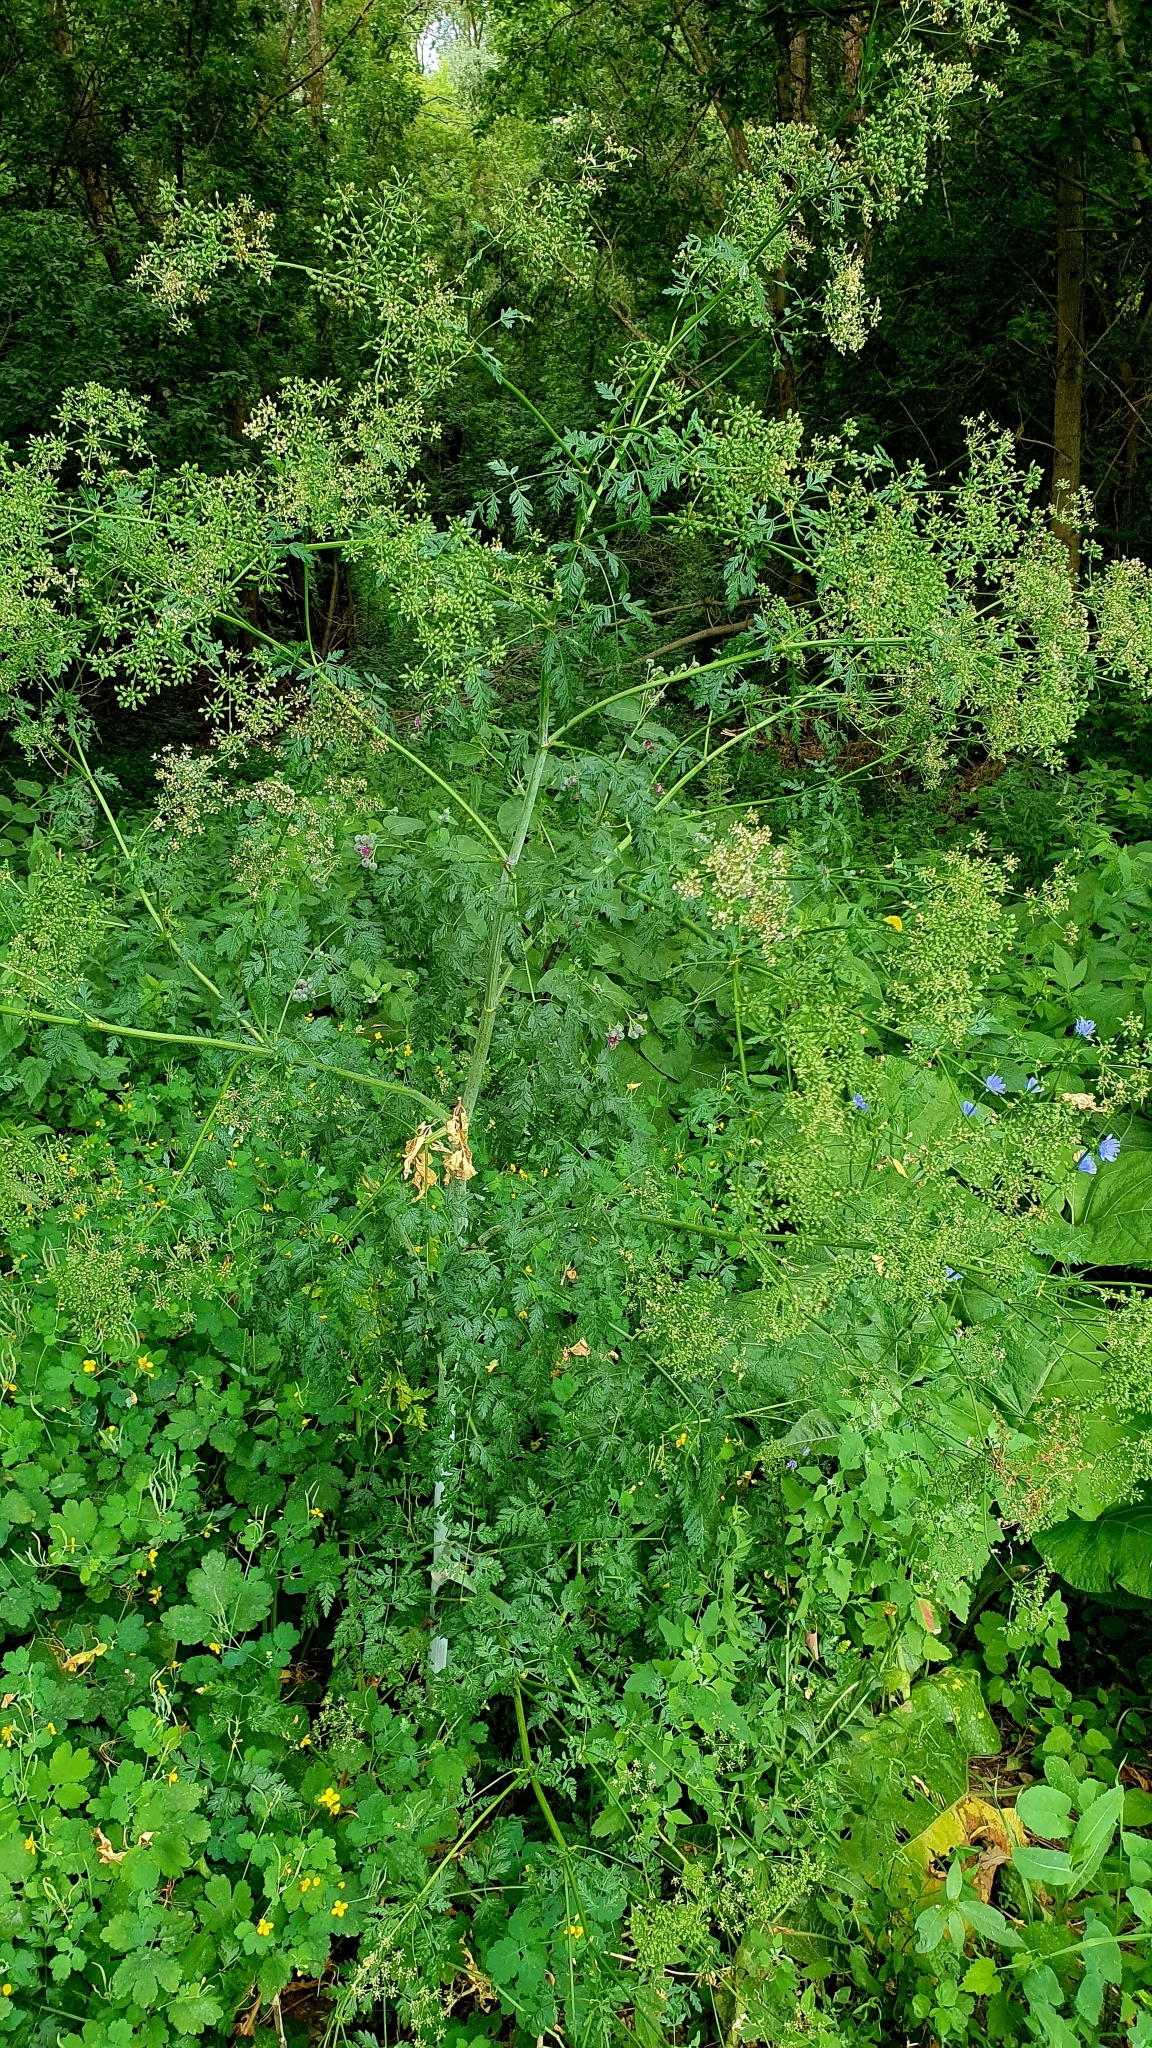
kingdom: Plantae
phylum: Tracheophyta
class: Magnoliopsida
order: Apiales
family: Apiaceae
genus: Conium
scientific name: Conium maculatum
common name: Hemlock
